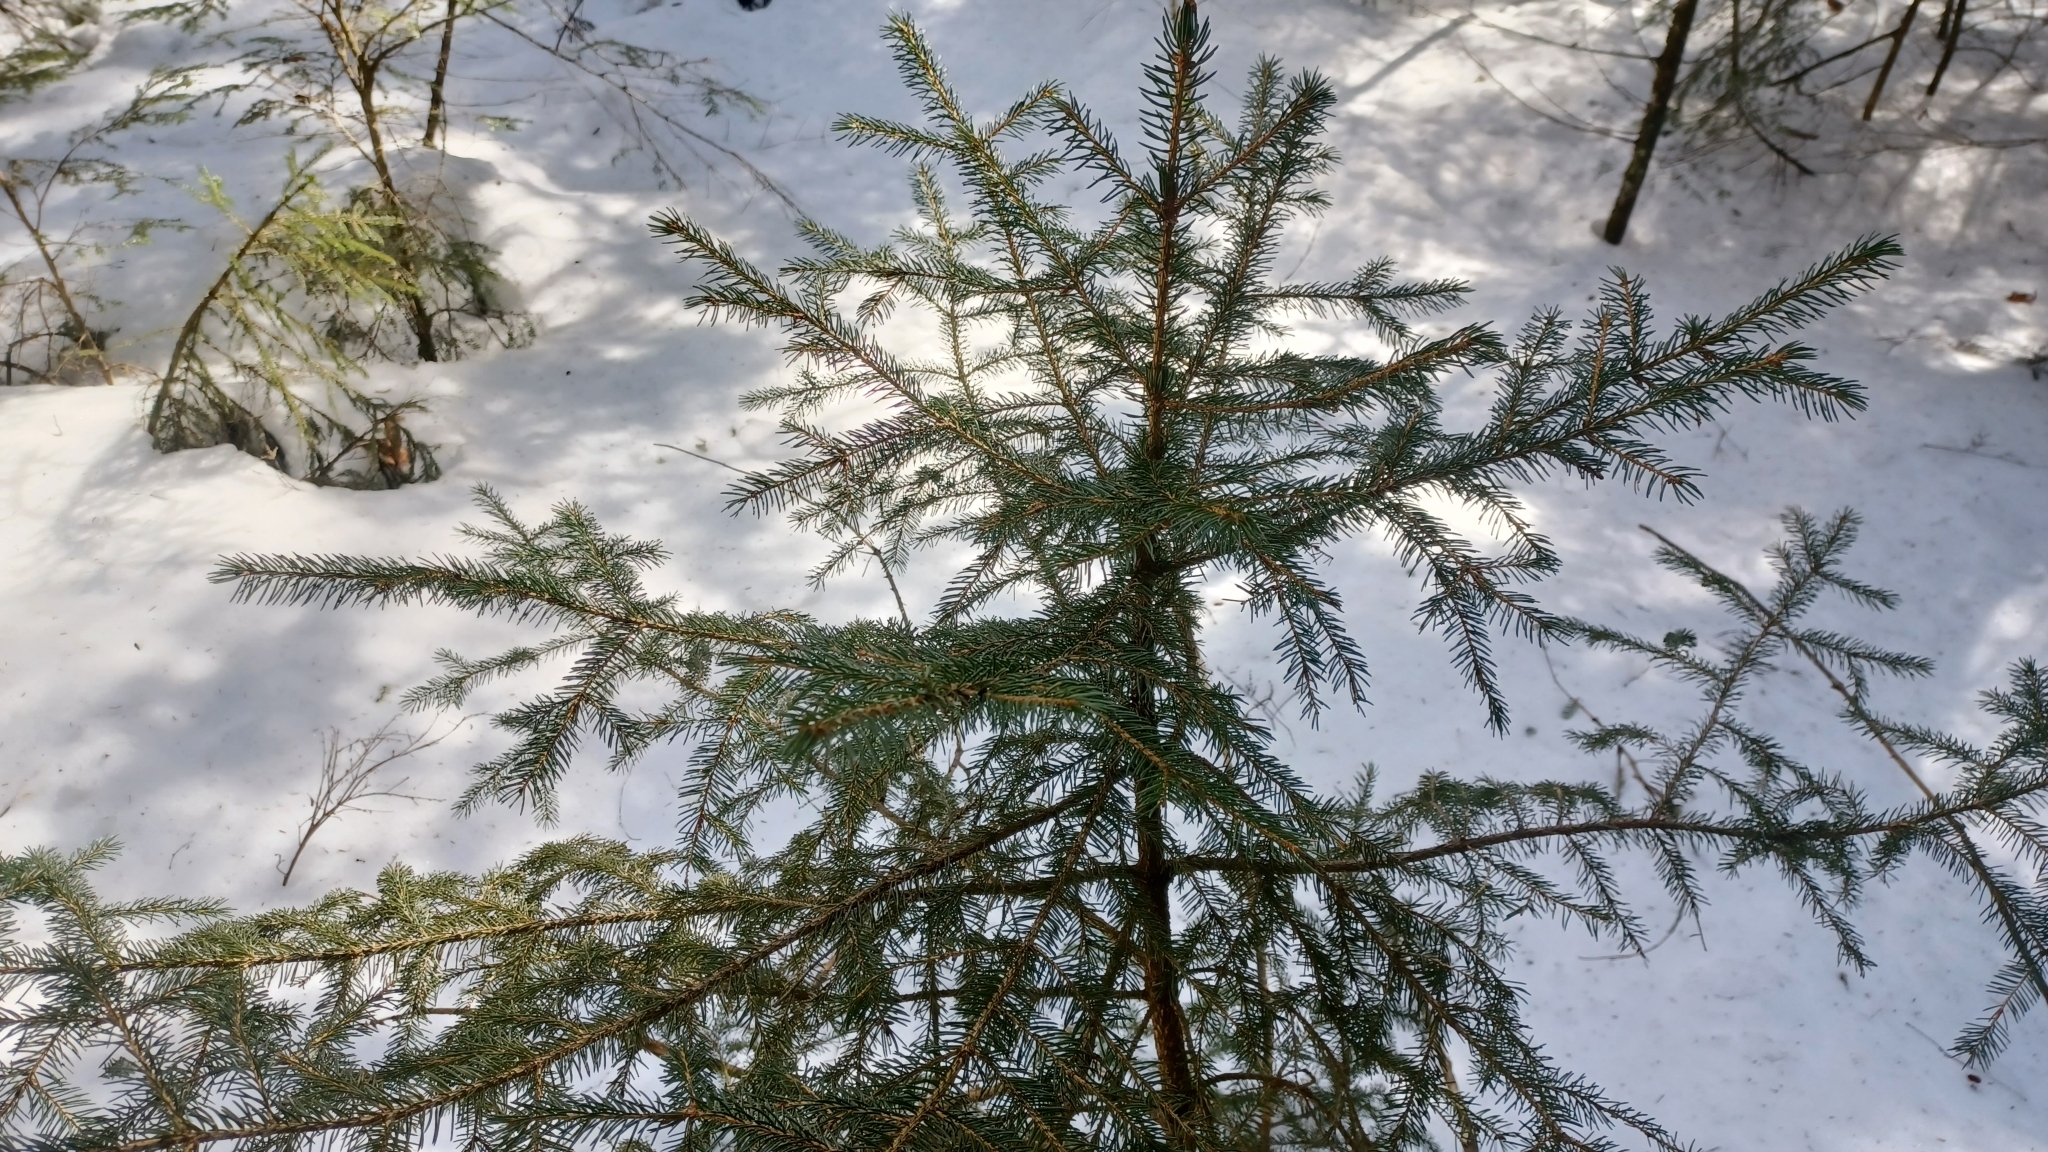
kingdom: Plantae
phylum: Tracheophyta
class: Pinopsida
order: Pinales
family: Pinaceae
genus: Picea
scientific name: Picea rubens
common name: Red spruce
